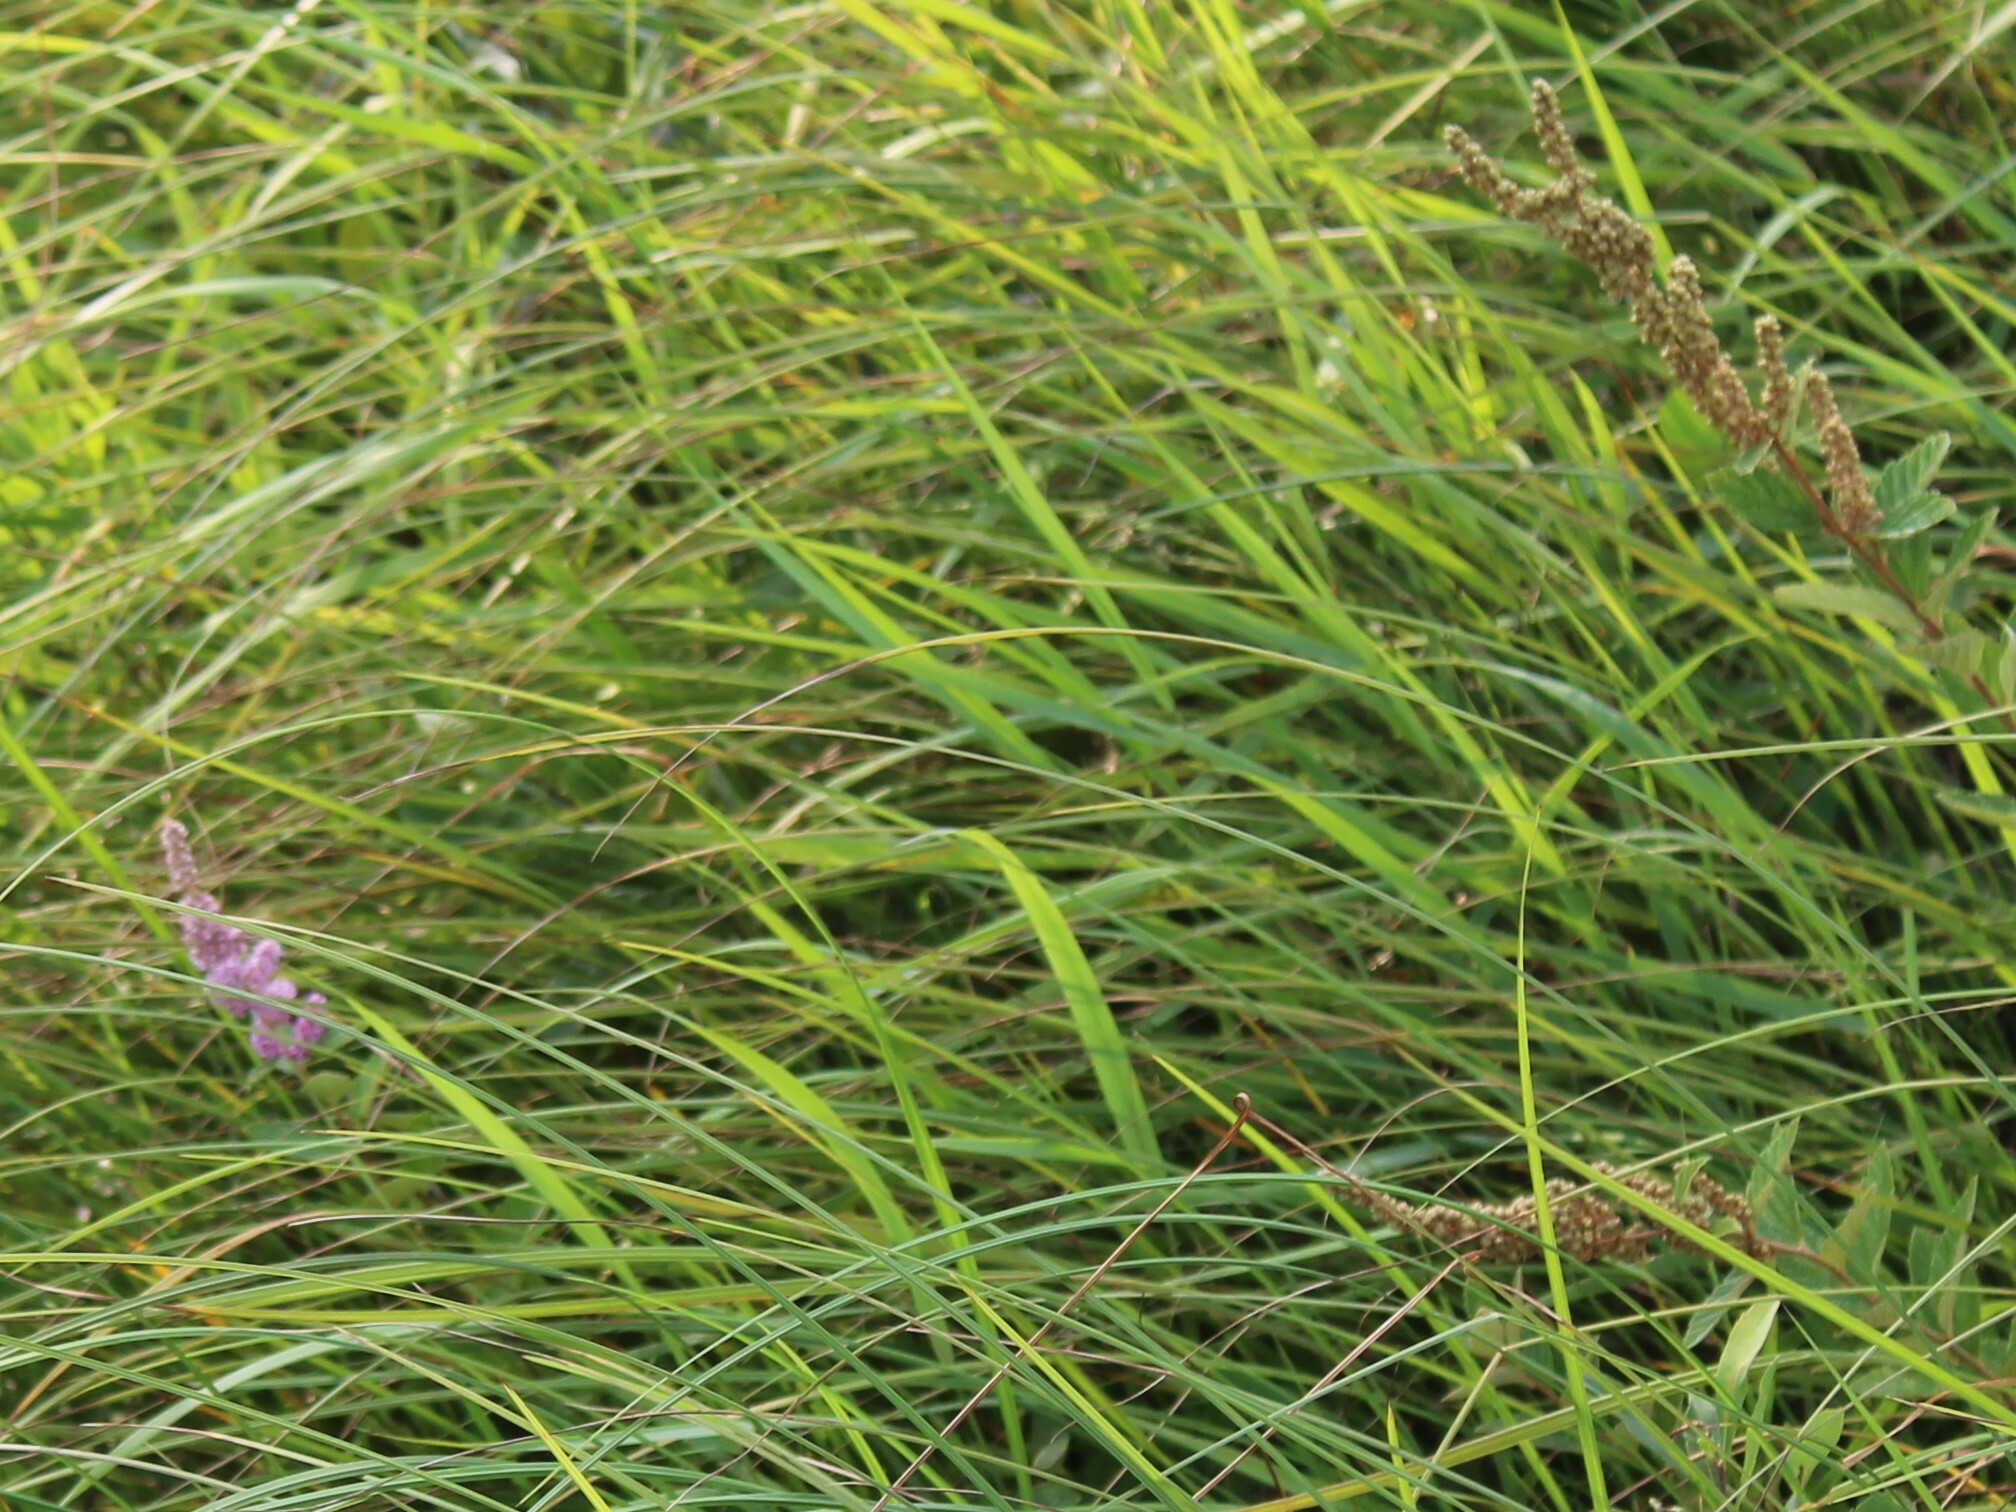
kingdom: Plantae
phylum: Tracheophyta
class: Magnoliopsida
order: Rosales
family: Rosaceae
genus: Spiraea
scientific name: Spiraea tomentosa
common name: Hardhack
